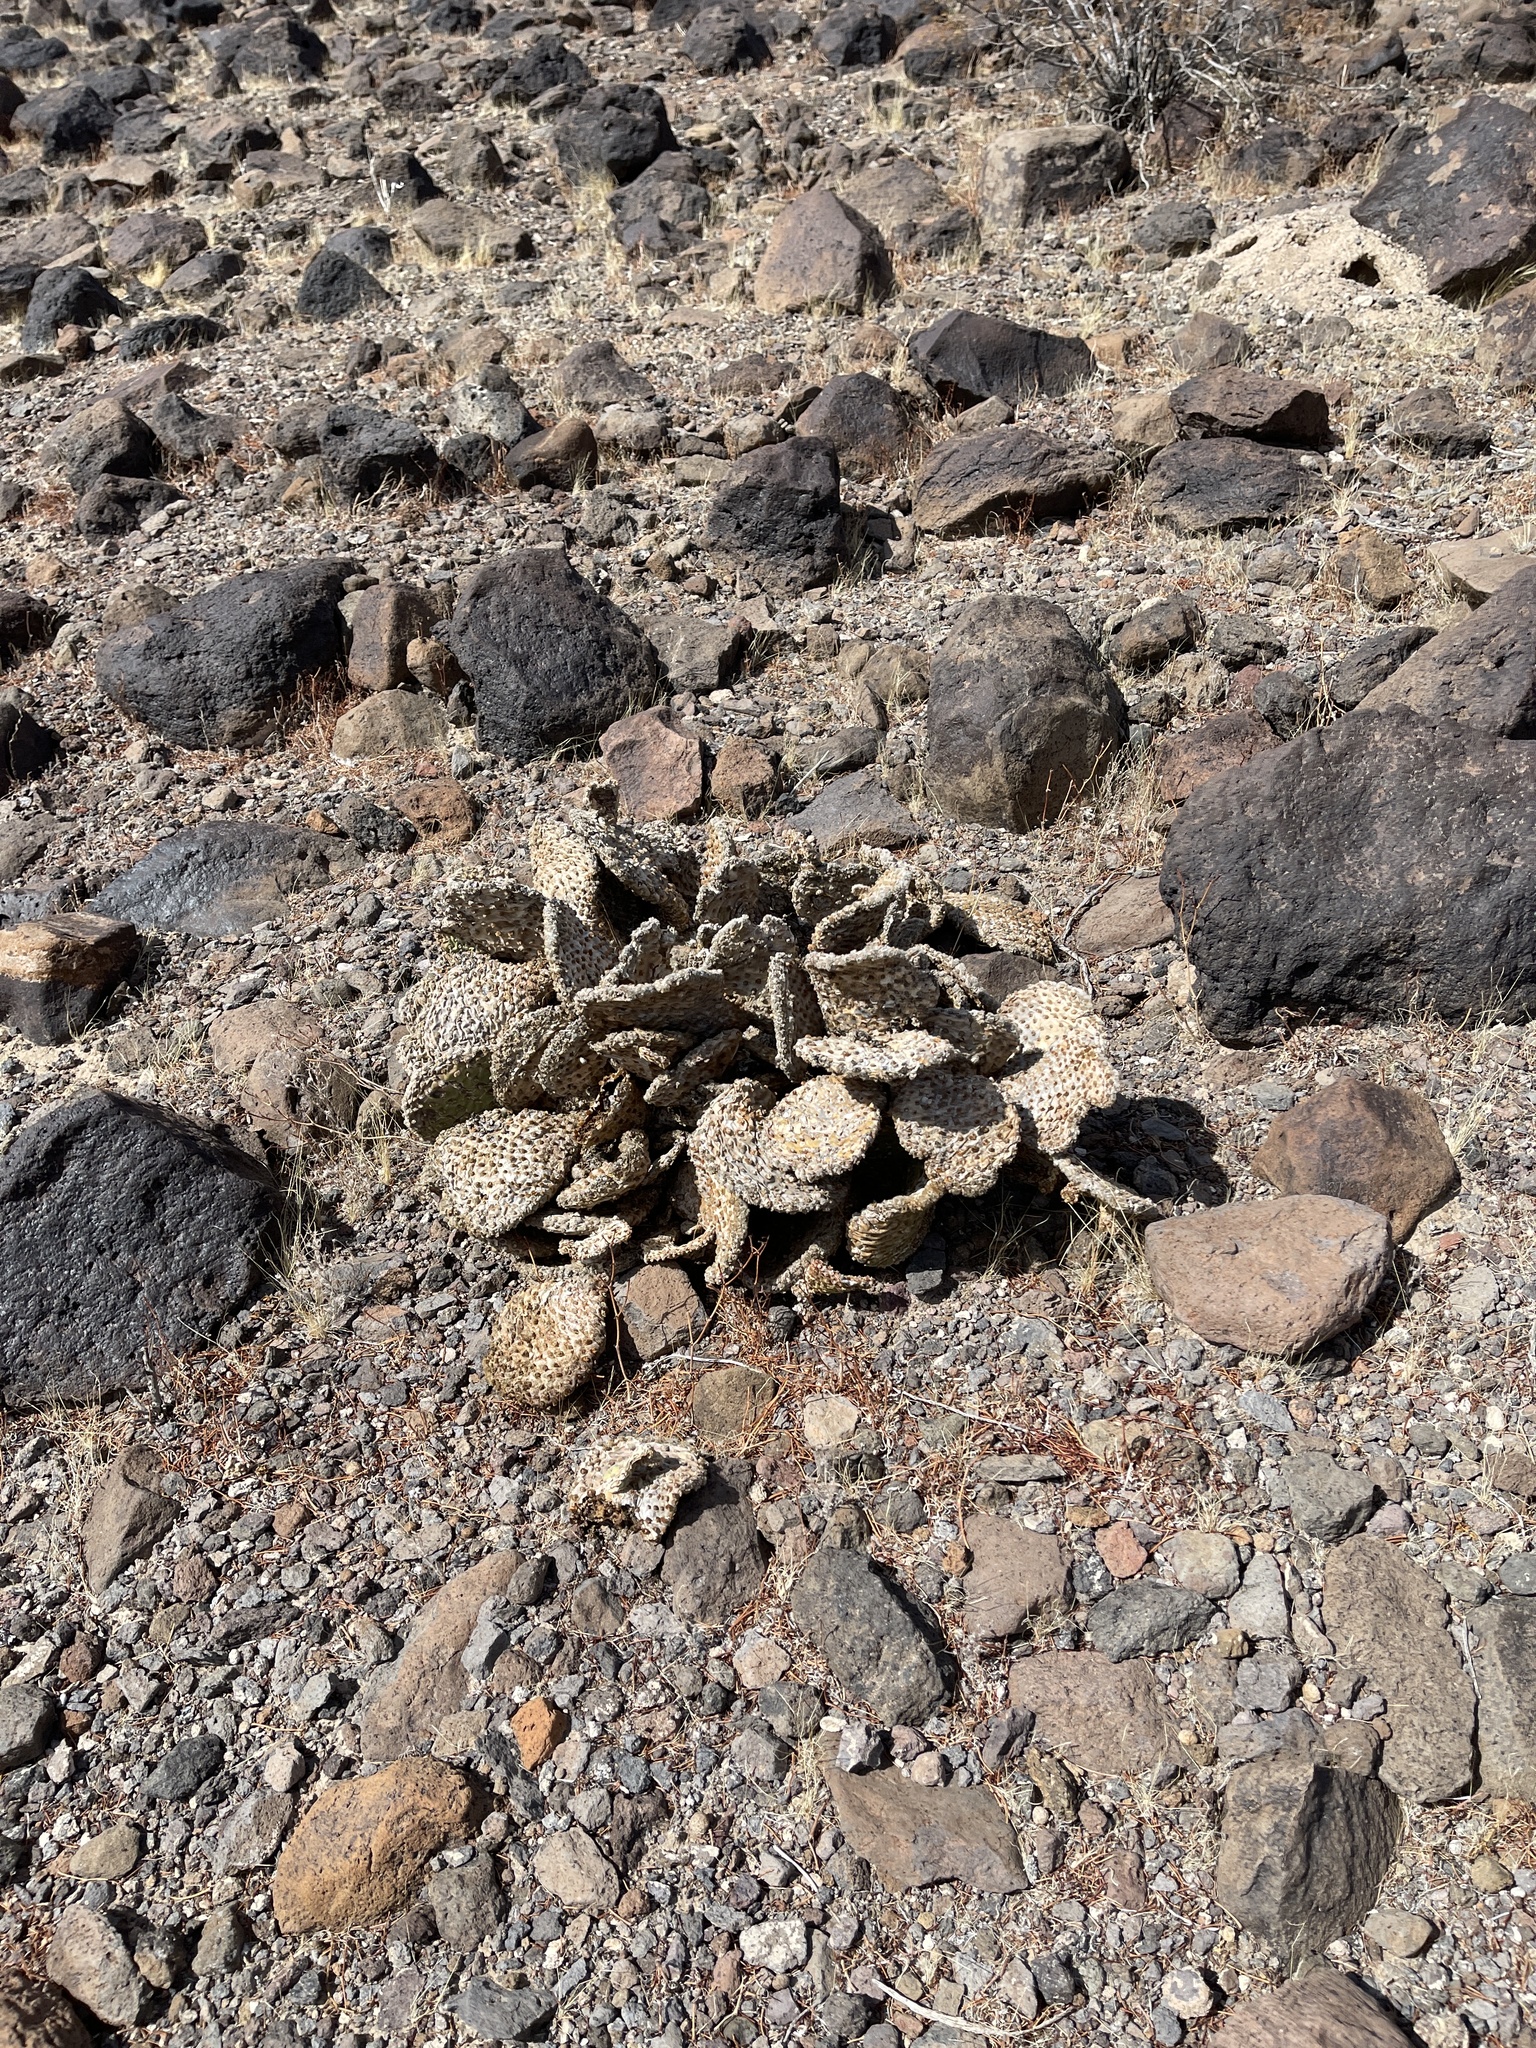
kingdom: Plantae
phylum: Tracheophyta
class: Magnoliopsida
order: Caryophyllales
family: Cactaceae
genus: Opuntia
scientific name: Opuntia basilaris
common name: Beavertail prickly-pear
